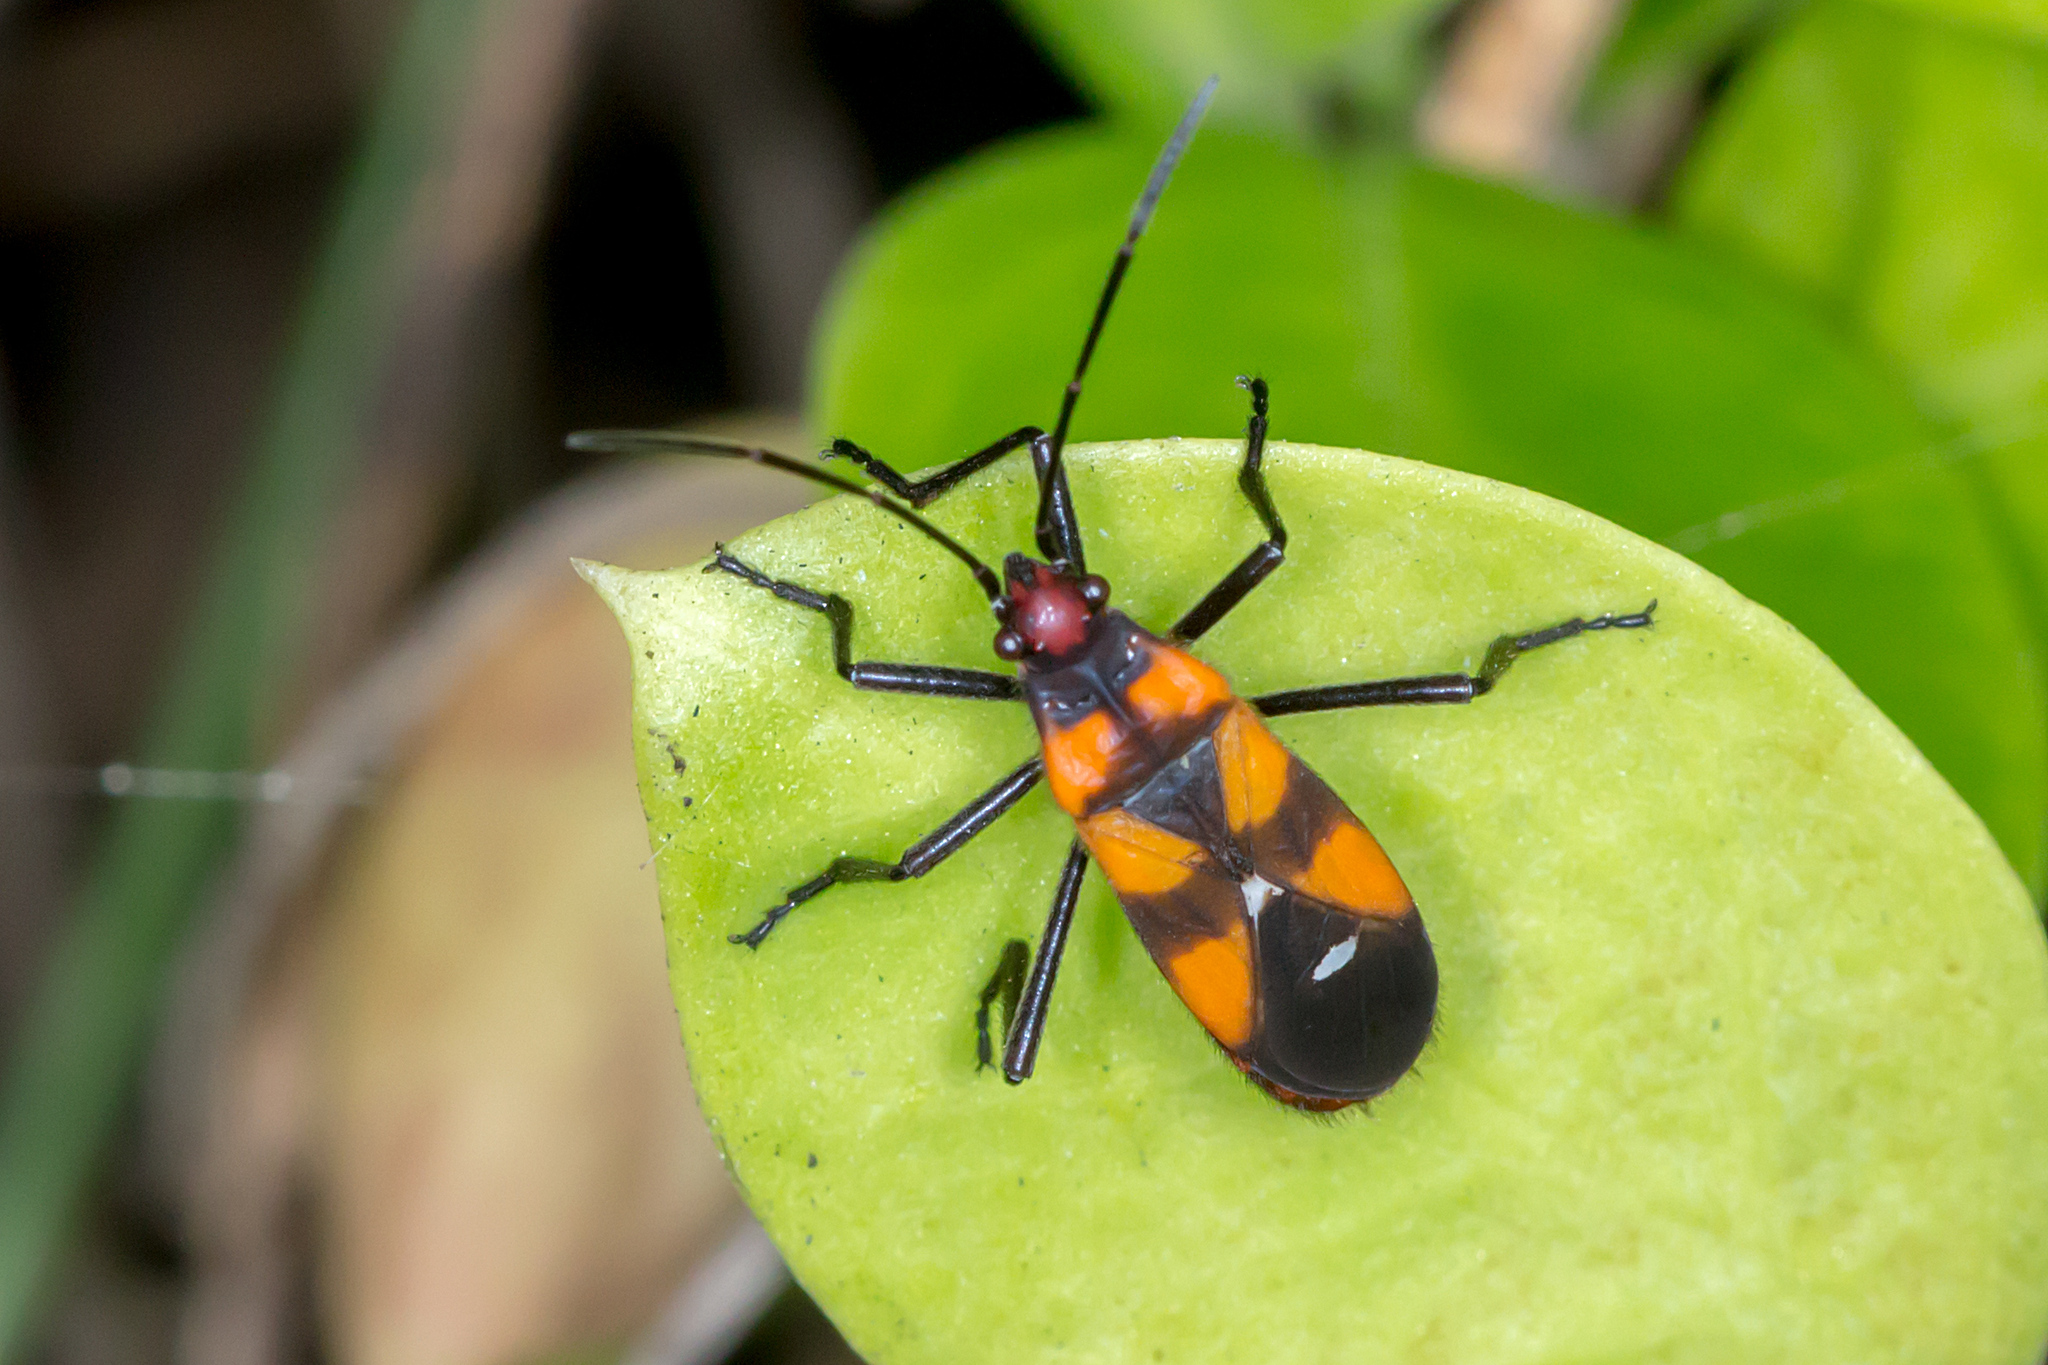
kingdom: Animalia
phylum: Arthropoda
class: Insecta
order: Hemiptera
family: Lygaeidae
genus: Oncopeltus
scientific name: Oncopeltus quadriguttatus
